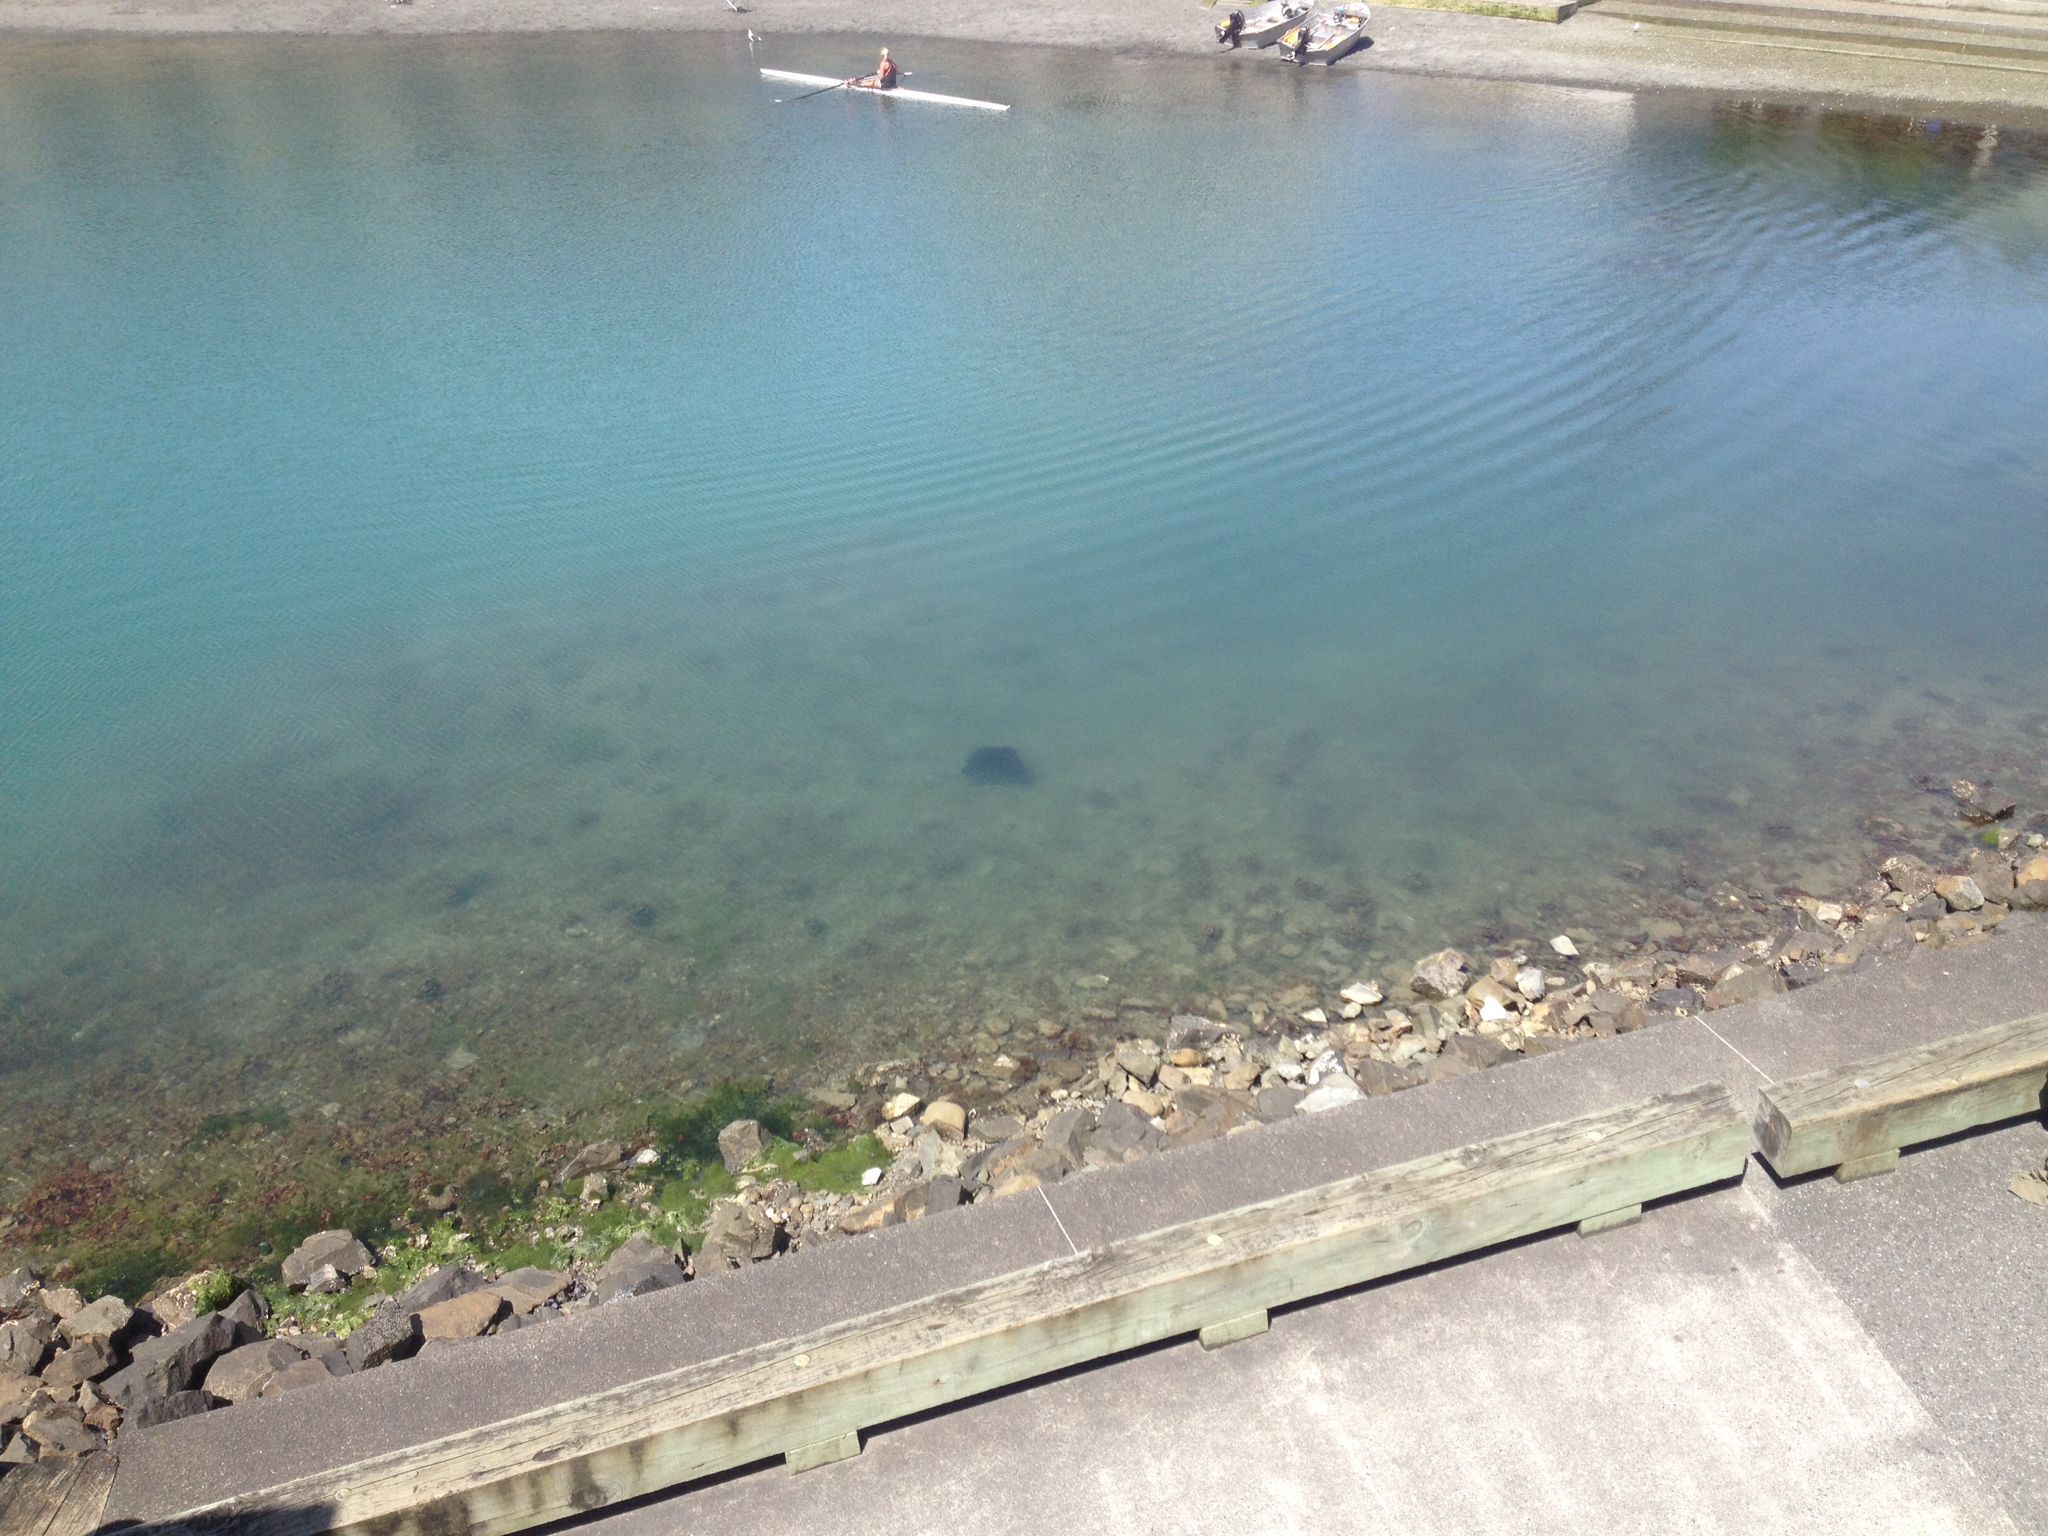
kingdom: Animalia
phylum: Chordata
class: Elasmobranchii
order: Myliobatiformes
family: Myliobatidae
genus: Myliobatis
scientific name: Myliobatis tenuicaudatus
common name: Eagle ray
